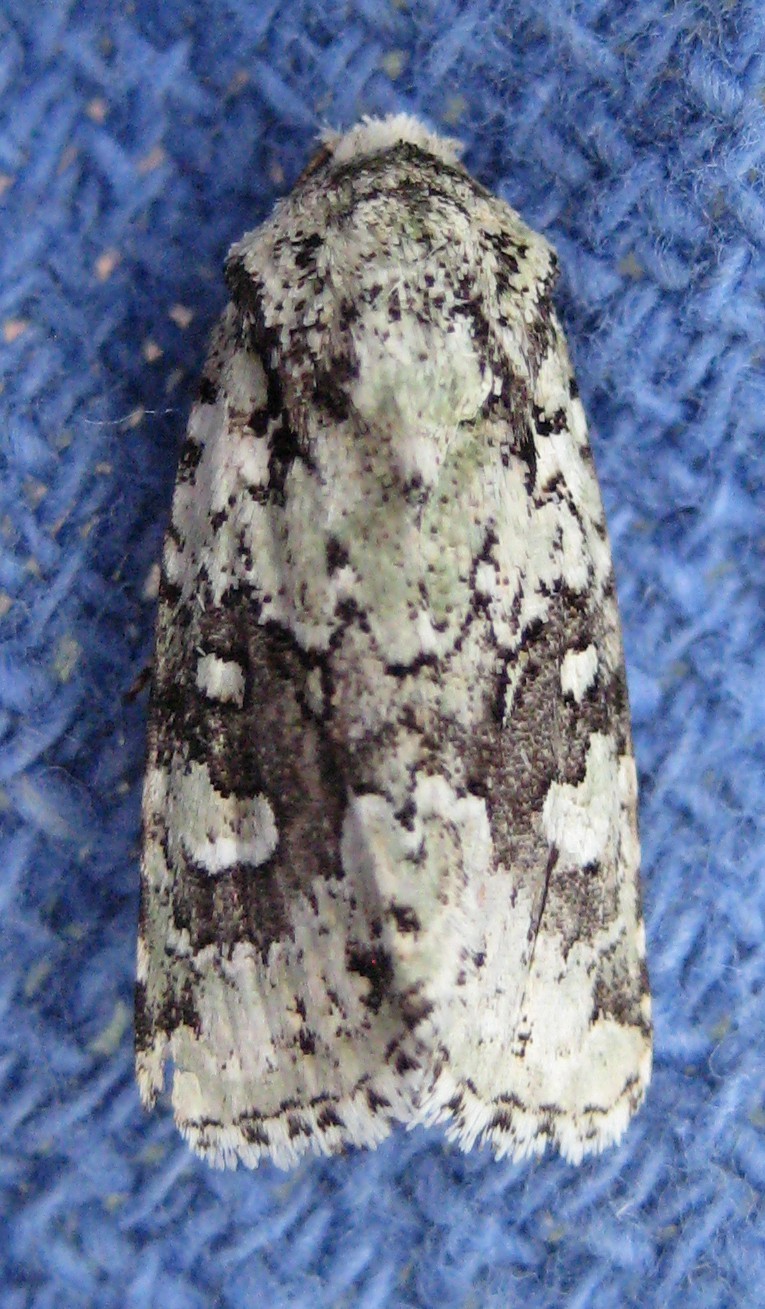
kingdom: Animalia
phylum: Arthropoda
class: Insecta
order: Lepidoptera
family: Noctuidae
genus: Lacinipolia
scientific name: Lacinipolia laudabilis
